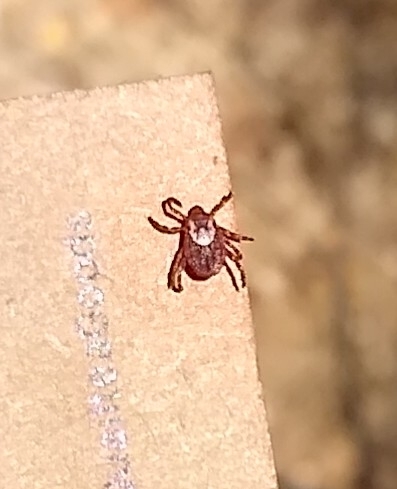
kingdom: Animalia
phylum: Arthropoda
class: Arachnida
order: Ixodida
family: Ixodidae
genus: Dermacentor
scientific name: Dermacentor variabilis
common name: American dog tick
